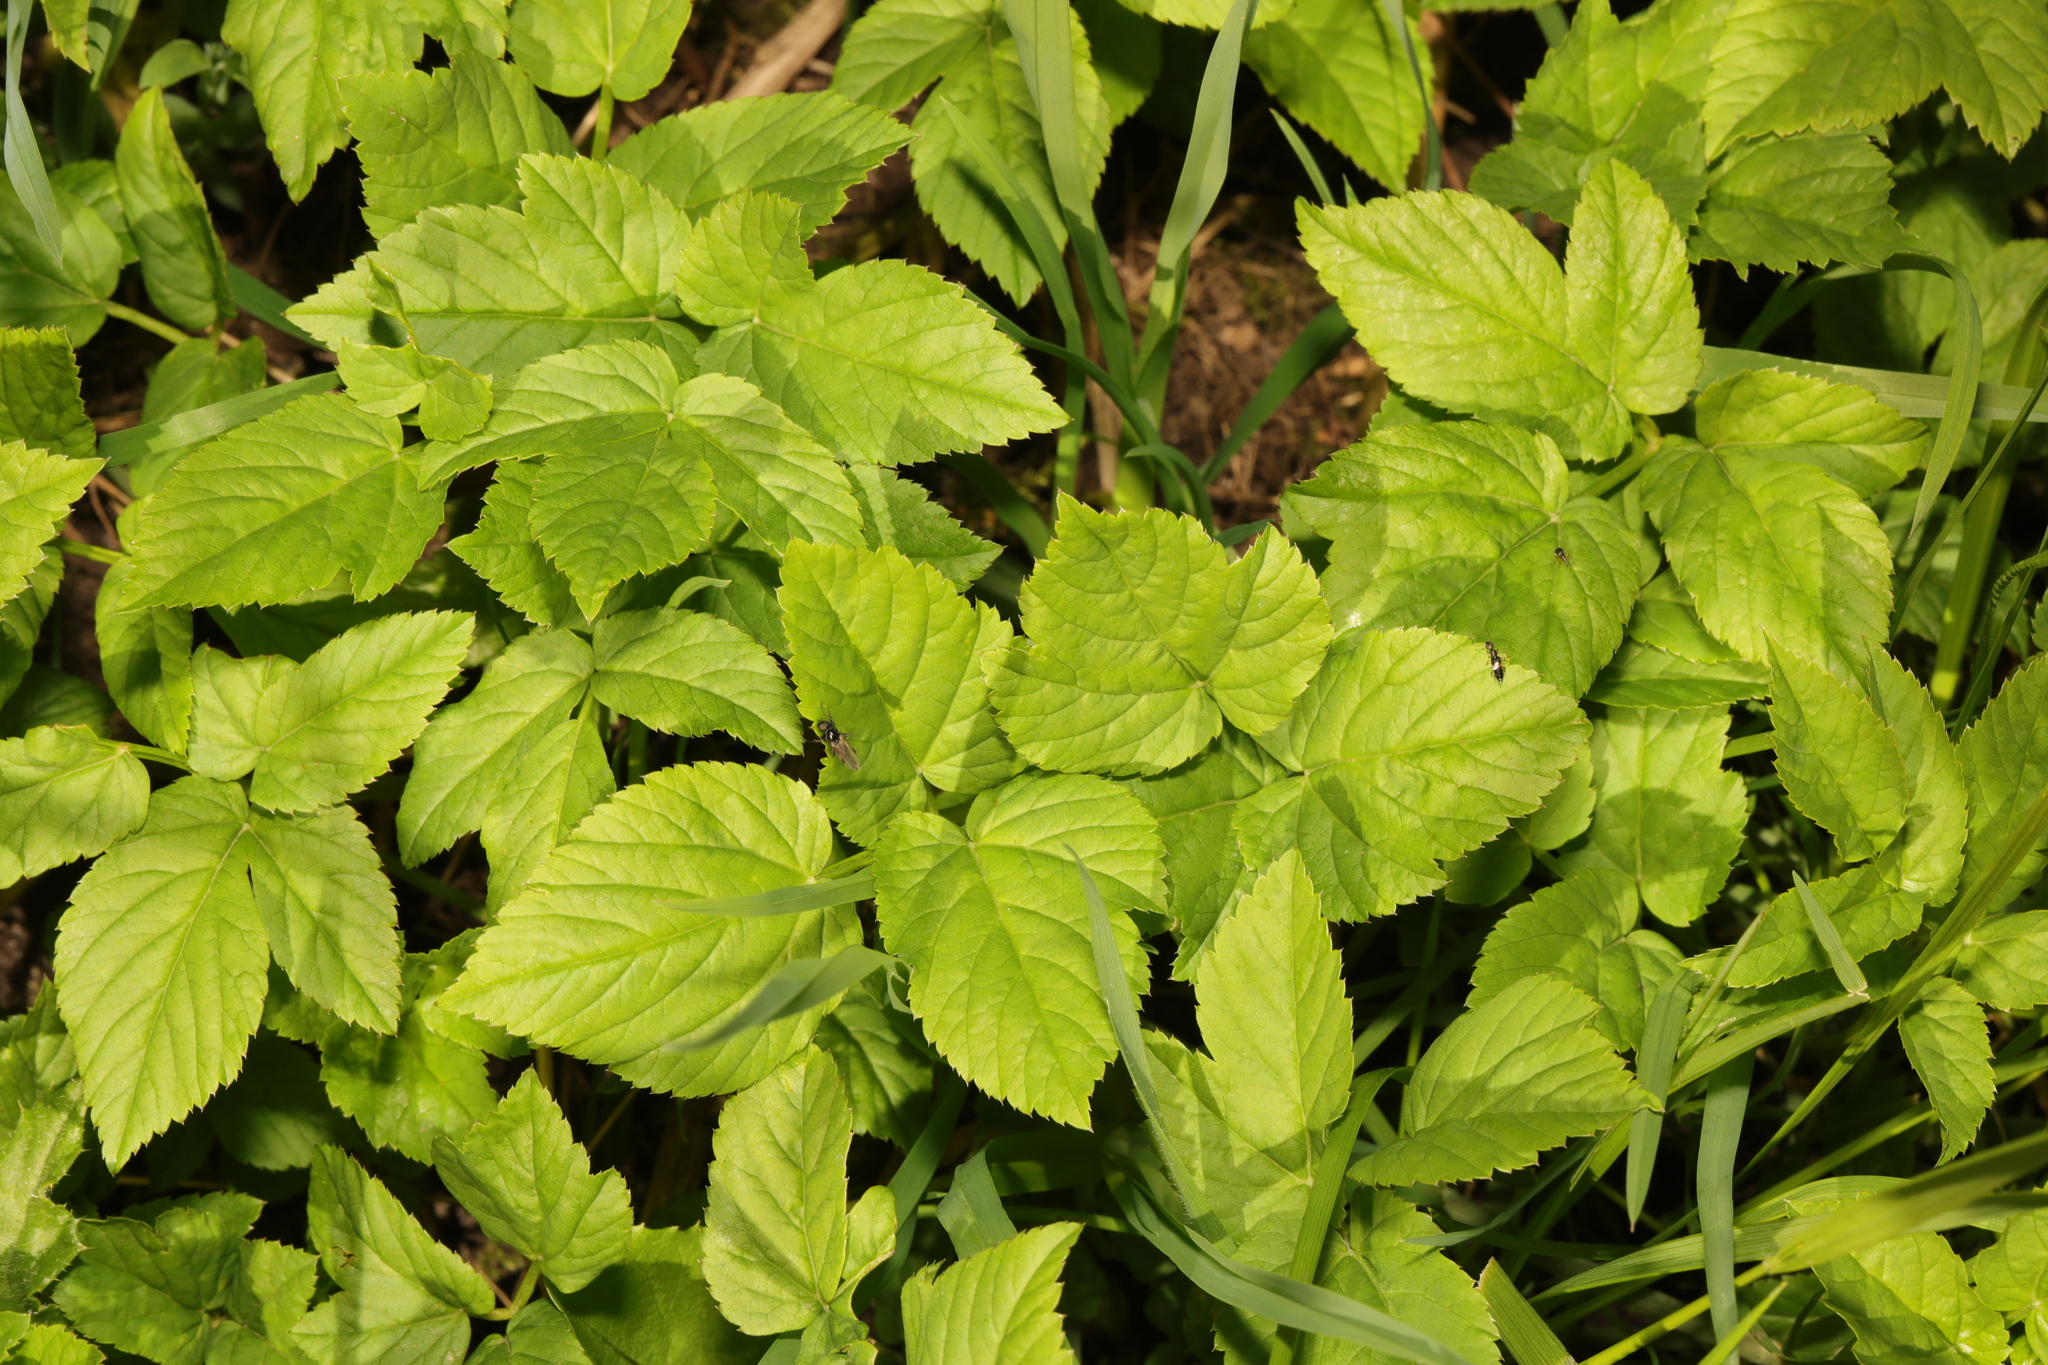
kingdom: Plantae
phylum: Tracheophyta
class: Magnoliopsida
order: Apiales
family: Apiaceae
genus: Aegopodium
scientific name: Aegopodium podagraria
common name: Ground-elder
